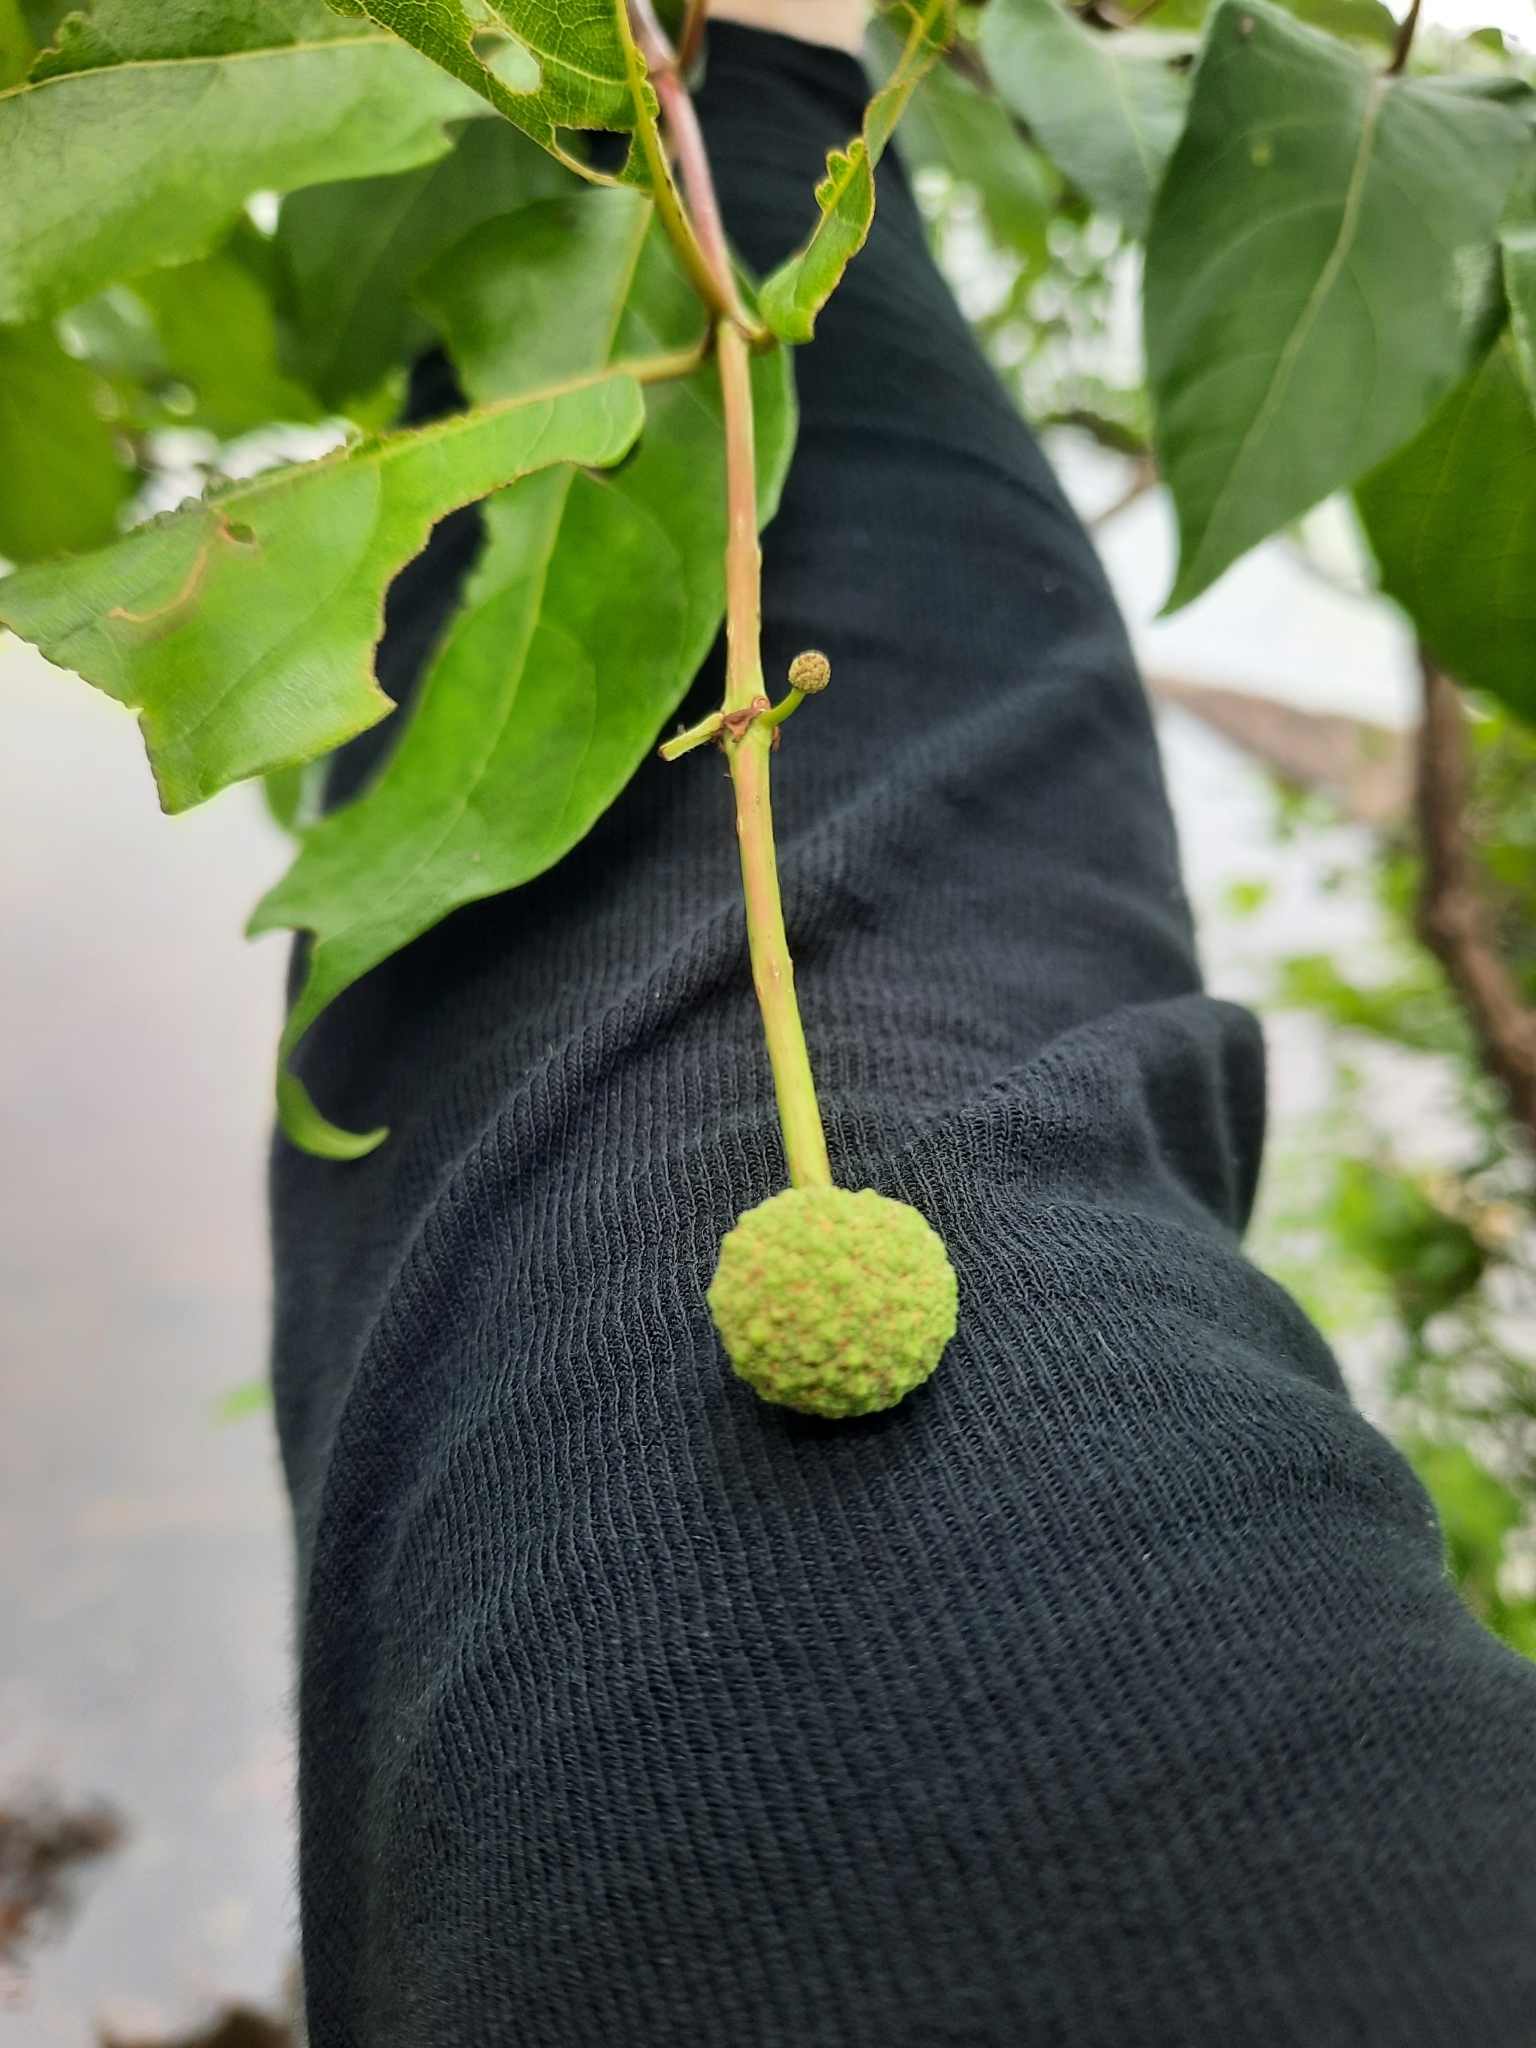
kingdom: Plantae
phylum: Tracheophyta
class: Magnoliopsida
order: Gentianales
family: Rubiaceae
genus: Cephalanthus
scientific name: Cephalanthus occidentalis
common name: Button-willow
